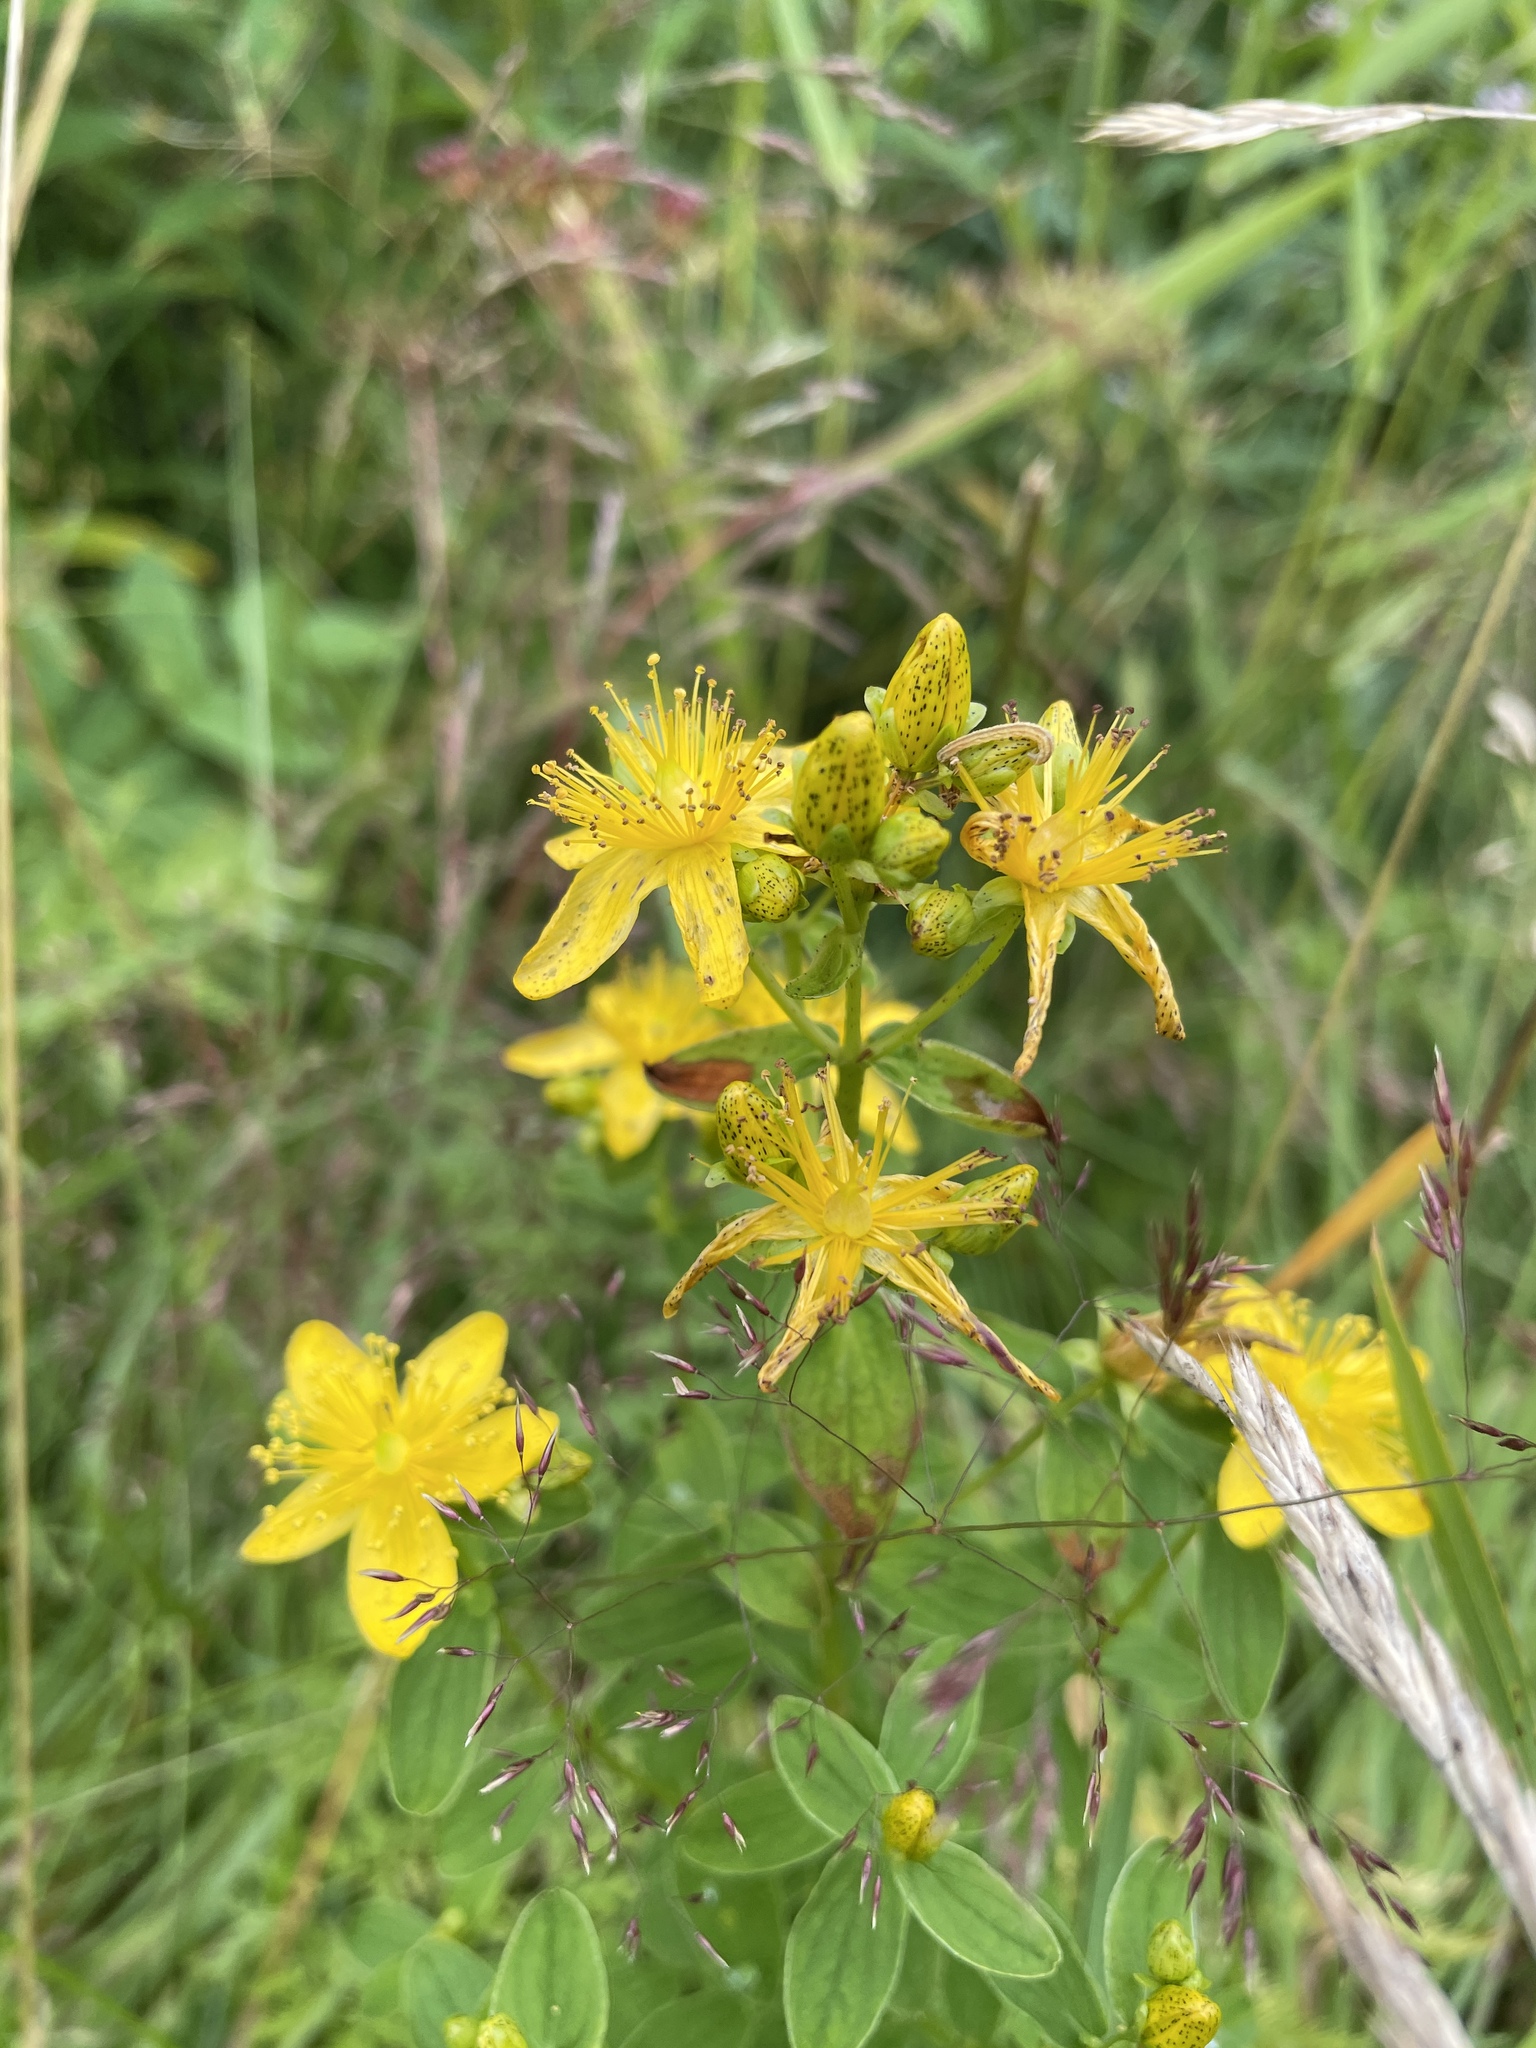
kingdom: Plantae
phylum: Tracheophyta
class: Magnoliopsida
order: Malpighiales
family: Hypericaceae
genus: Hypericum
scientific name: Hypericum maculatum
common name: Imperforate st. john's-wort
